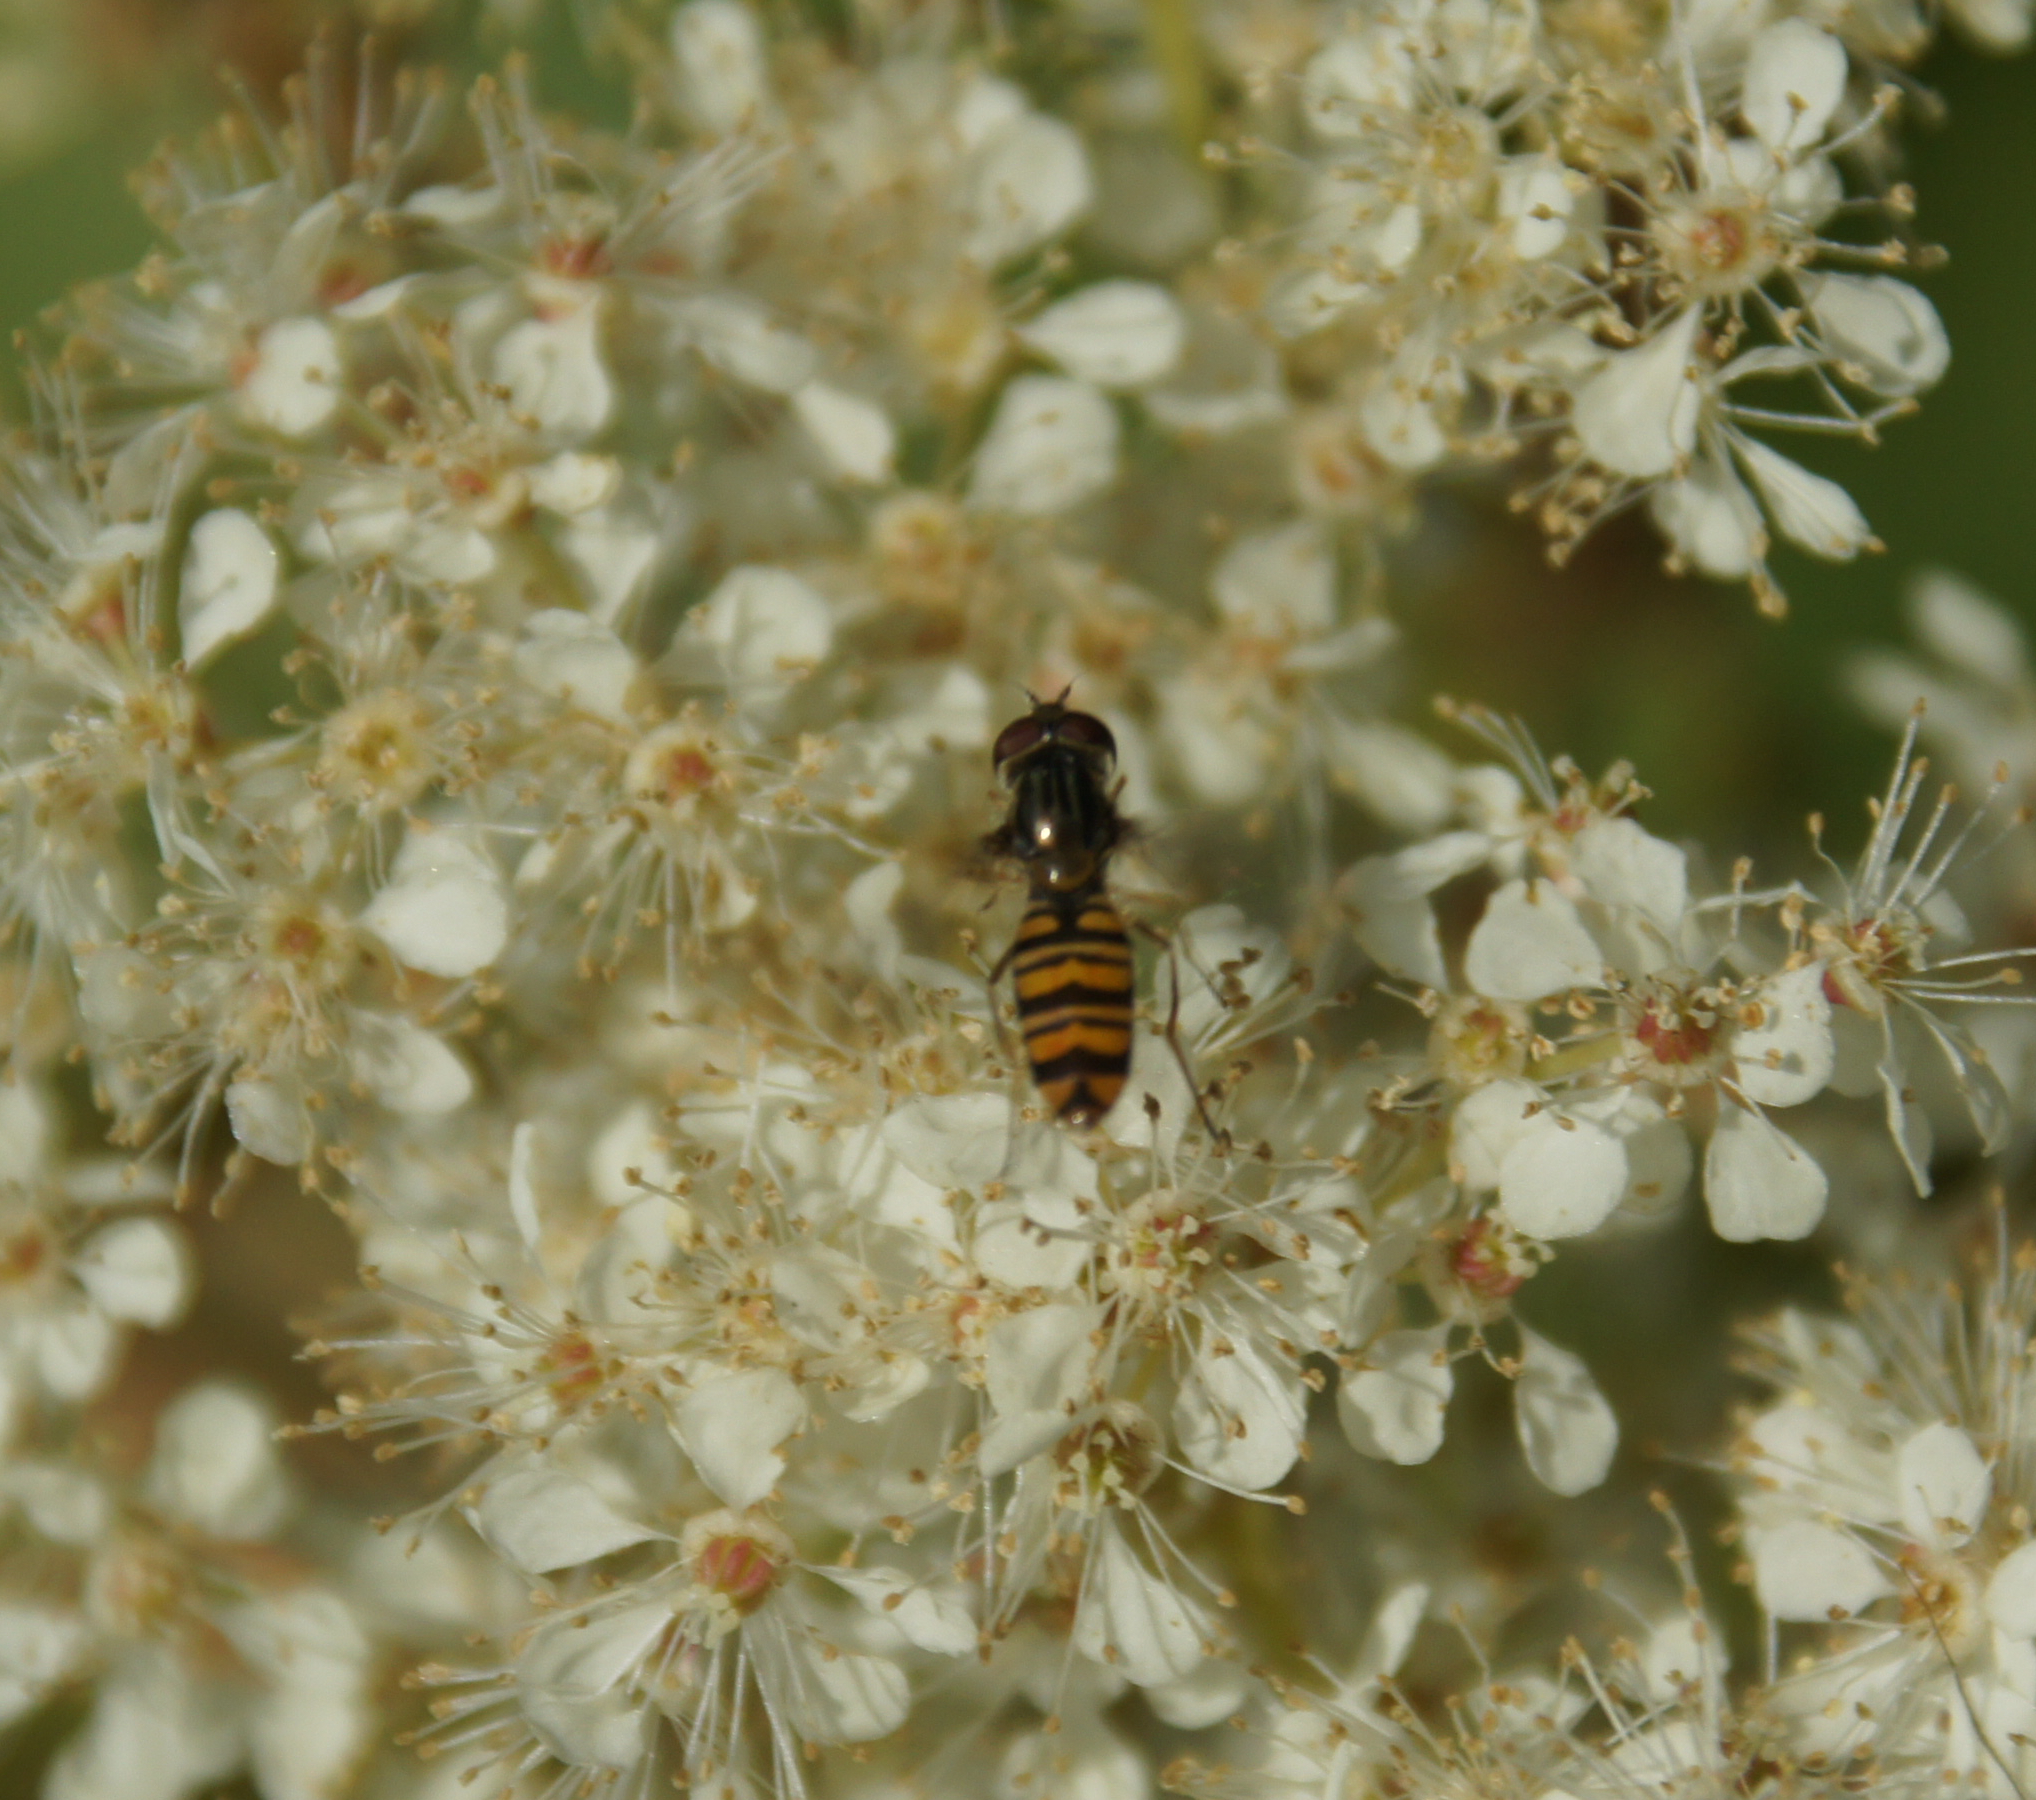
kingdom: Animalia
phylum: Arthropoda
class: Insecta
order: Diptera
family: Syrphidae
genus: Episyrphus
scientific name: Episyrphus balteatus
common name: Marmalade hoverfly
